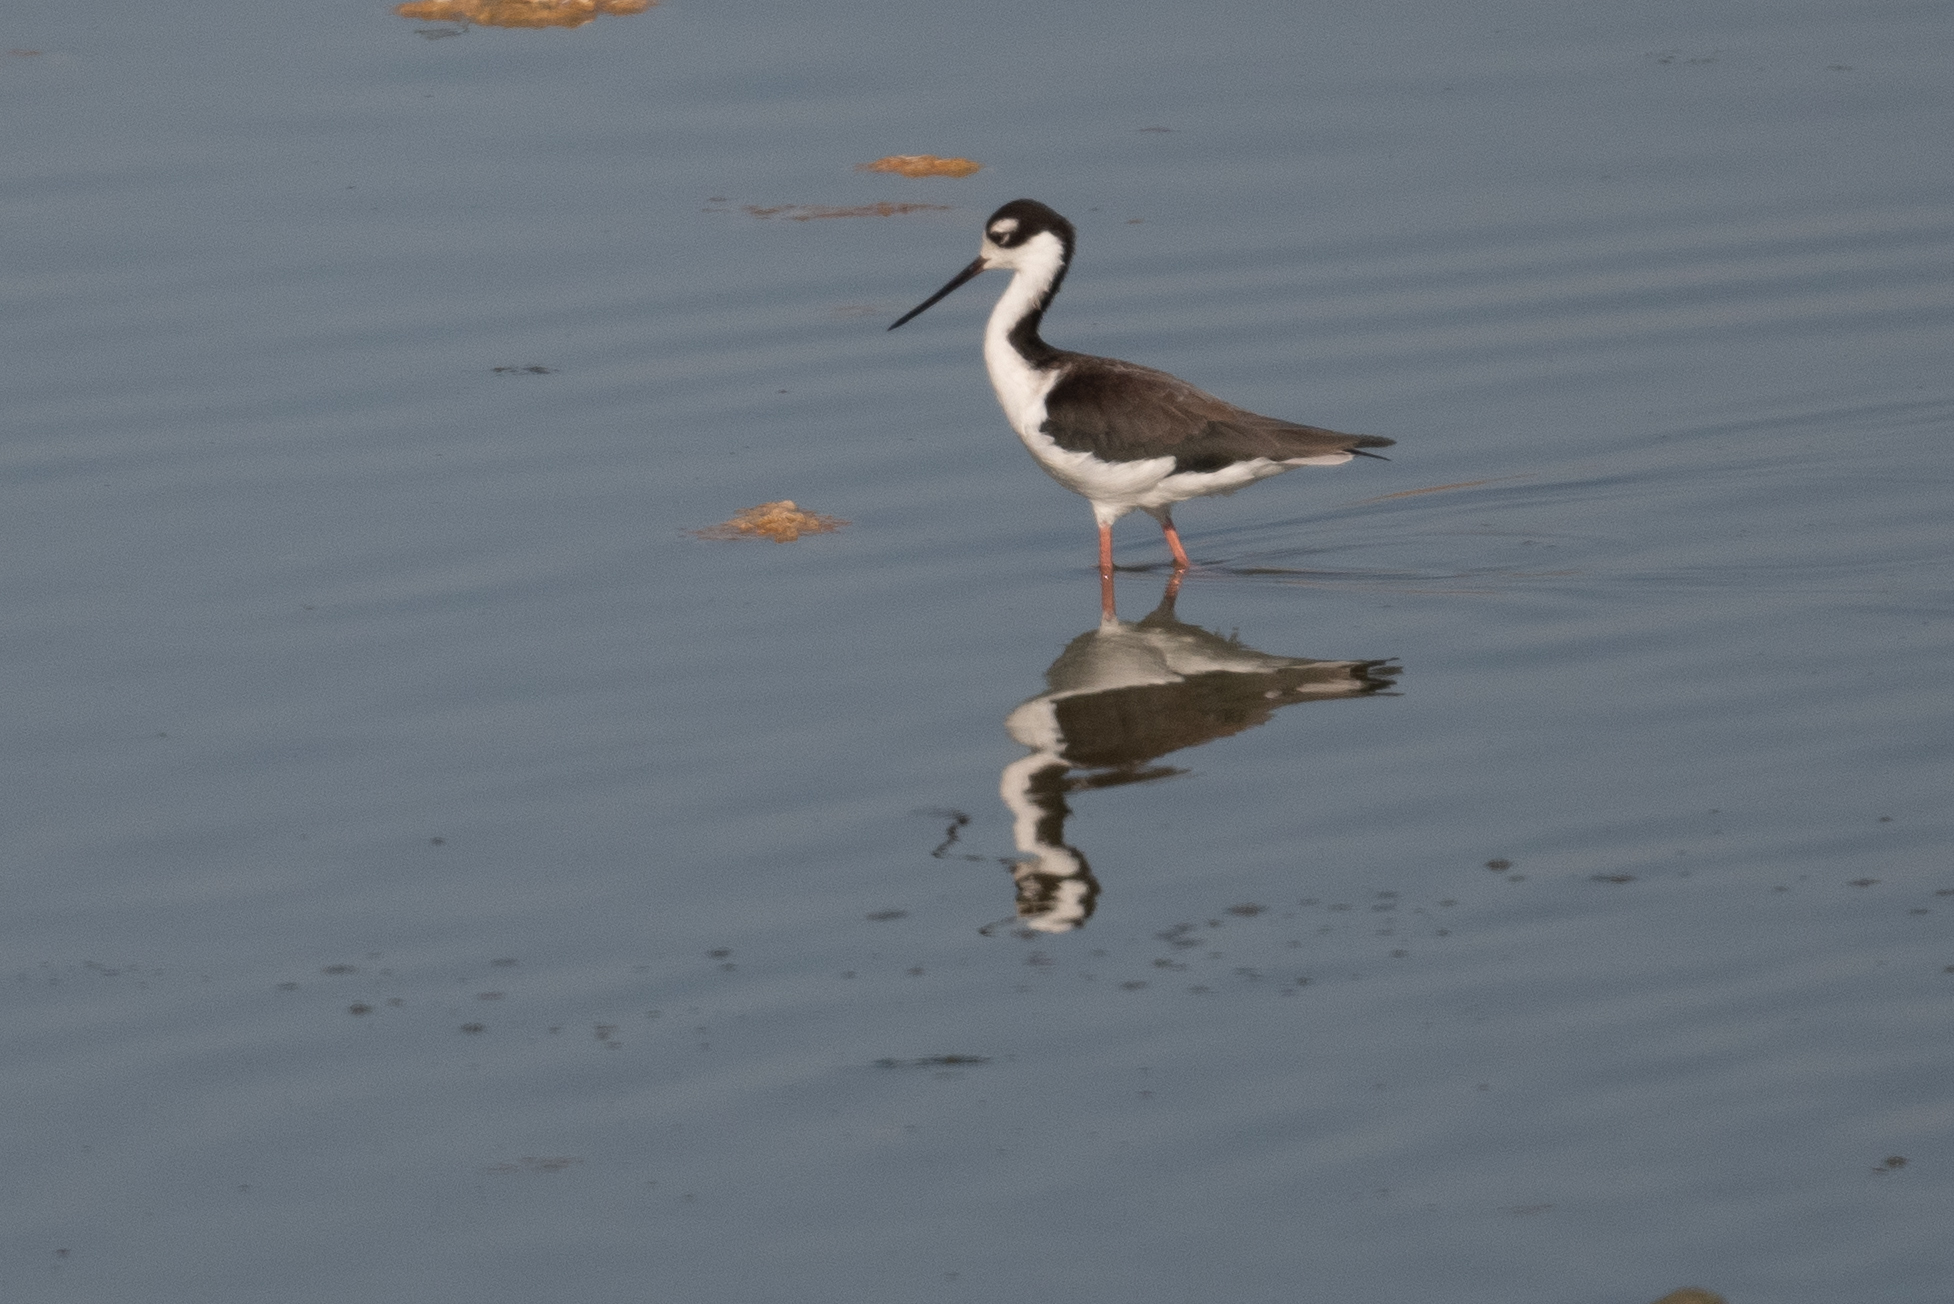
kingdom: Animalia
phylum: Chordata
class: Aves
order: Charadriiformes
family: Recurvirostridae
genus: Himantopus
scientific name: Himantopus mexicanus
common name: Black-necked stilt
